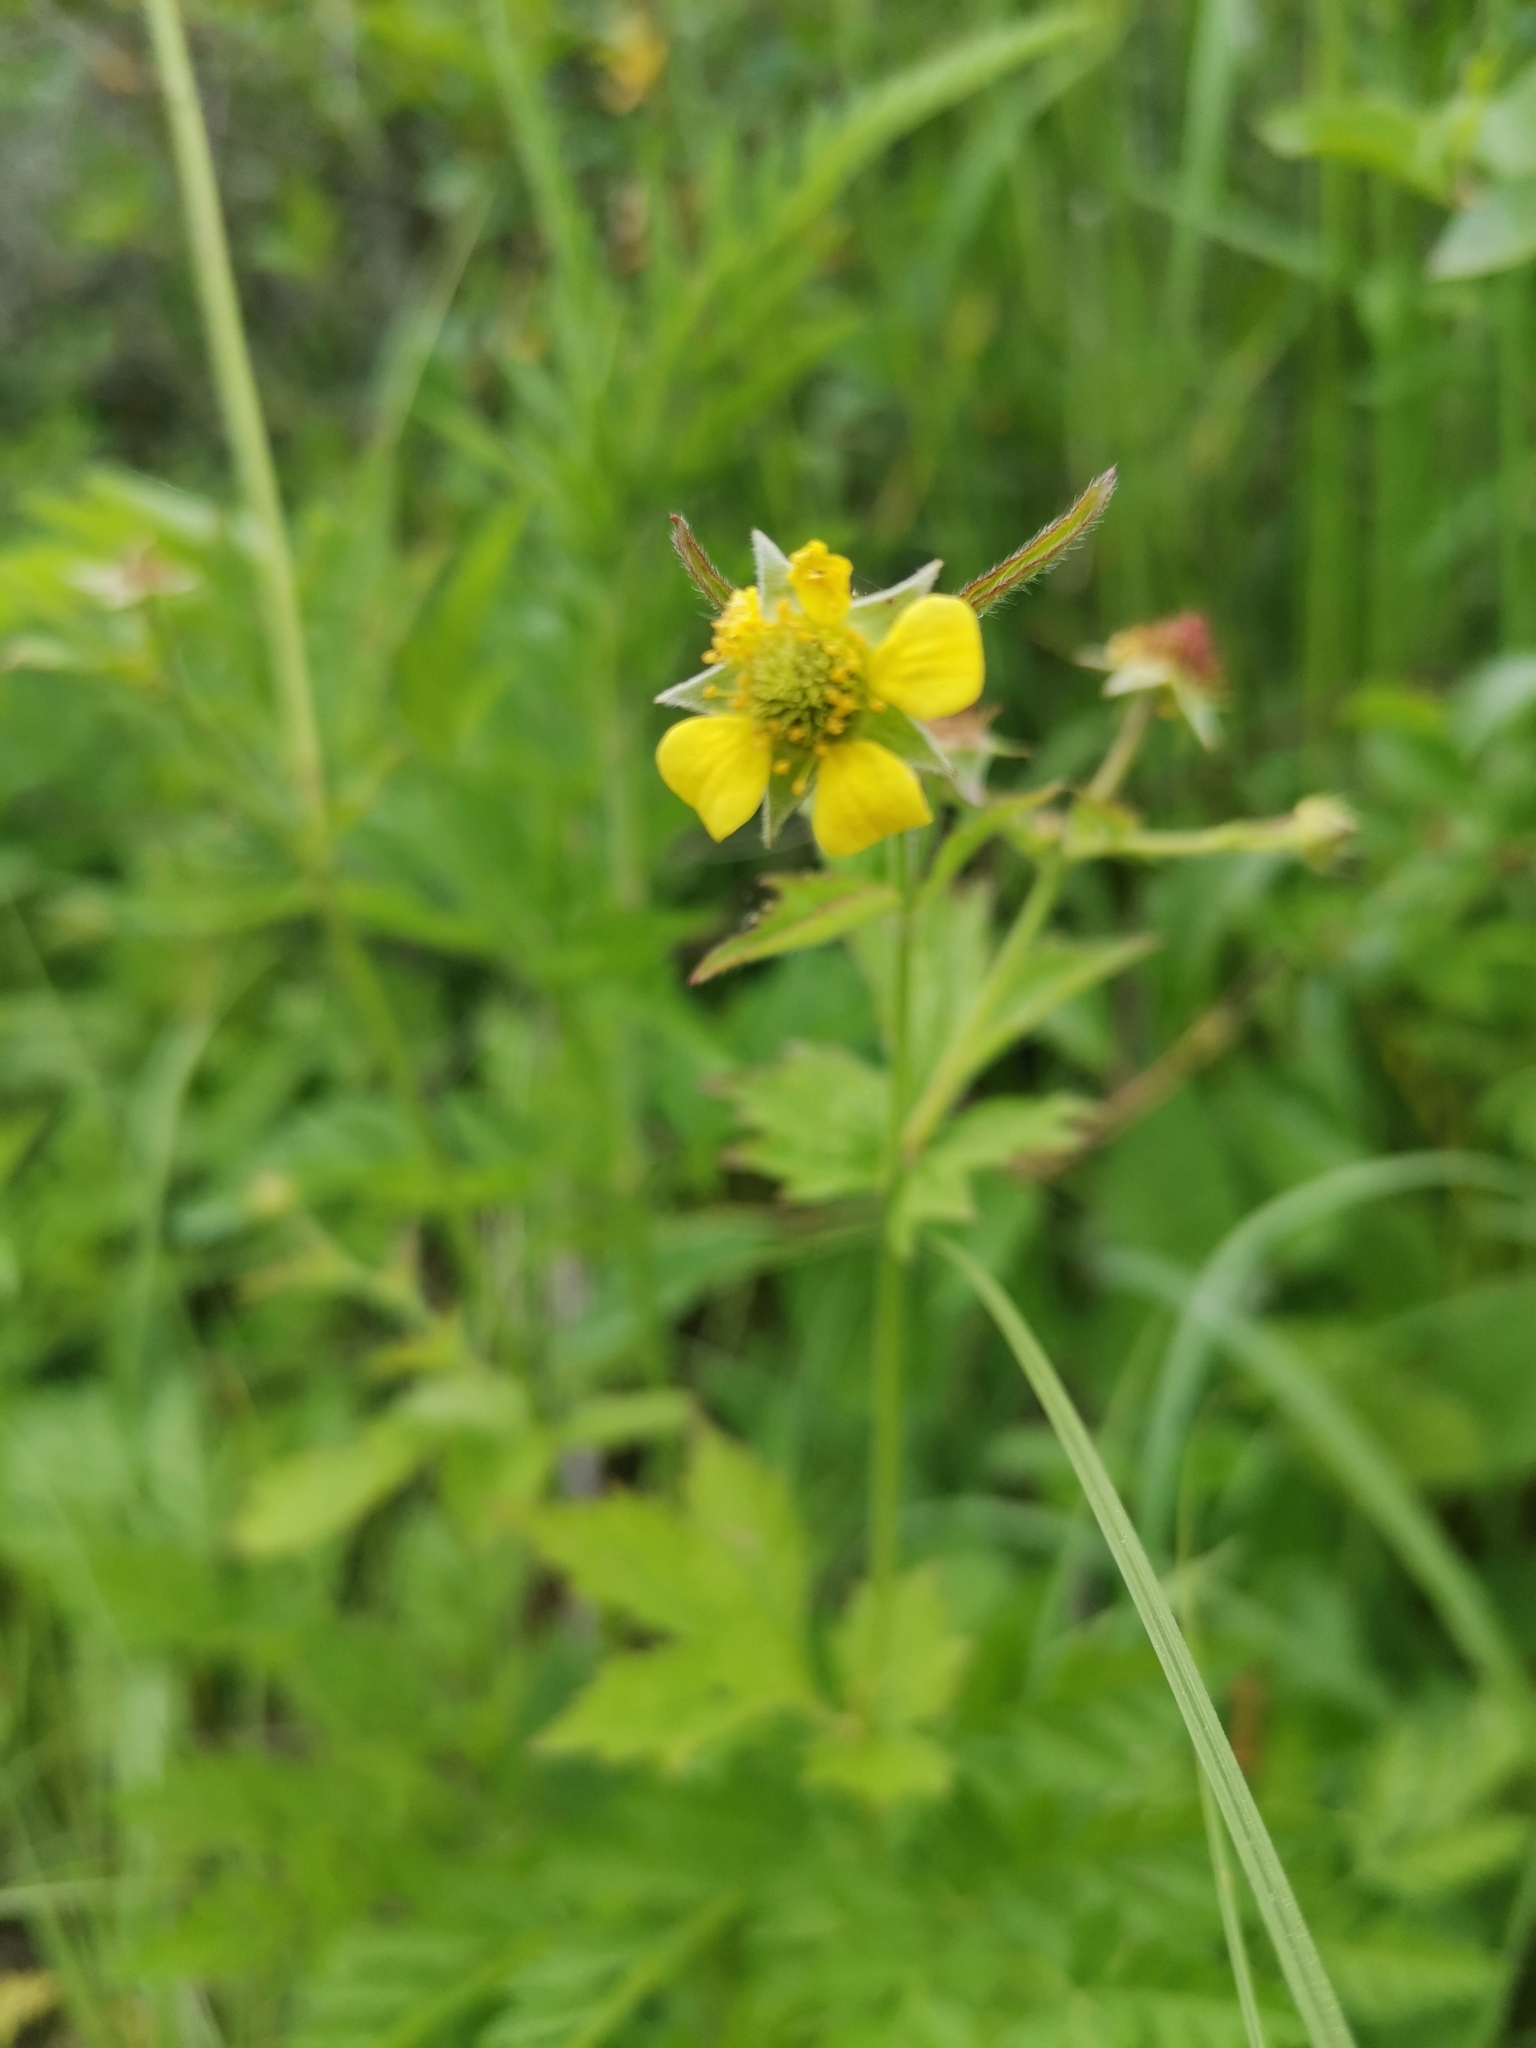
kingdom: Plantae
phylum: Tracheophyta
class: Magnoliopsida
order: Rosales
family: Rosaceae
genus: Geum
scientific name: Geum urbanum
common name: Wood avens
